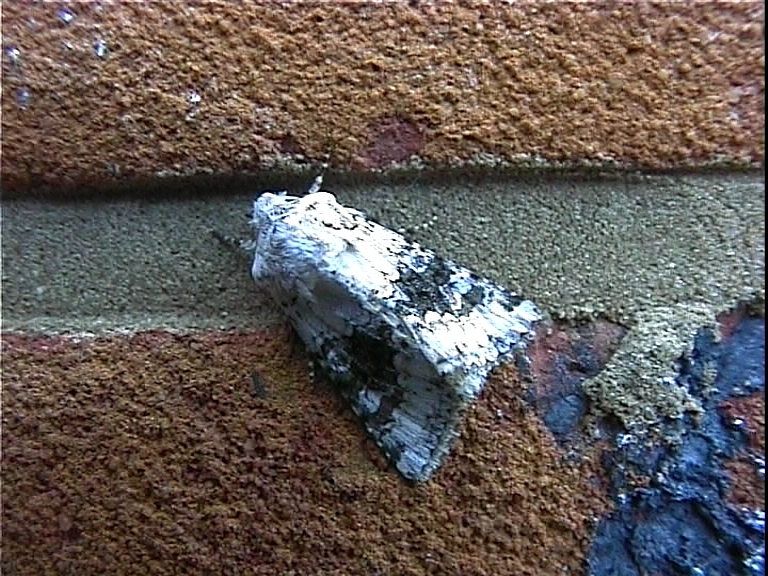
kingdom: Animalia
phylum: Arthropoda
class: Insecta
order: Lepidoptera
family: Noctuidae
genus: Hecatera
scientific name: Hecatera bicolorata
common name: Broad-barred white
